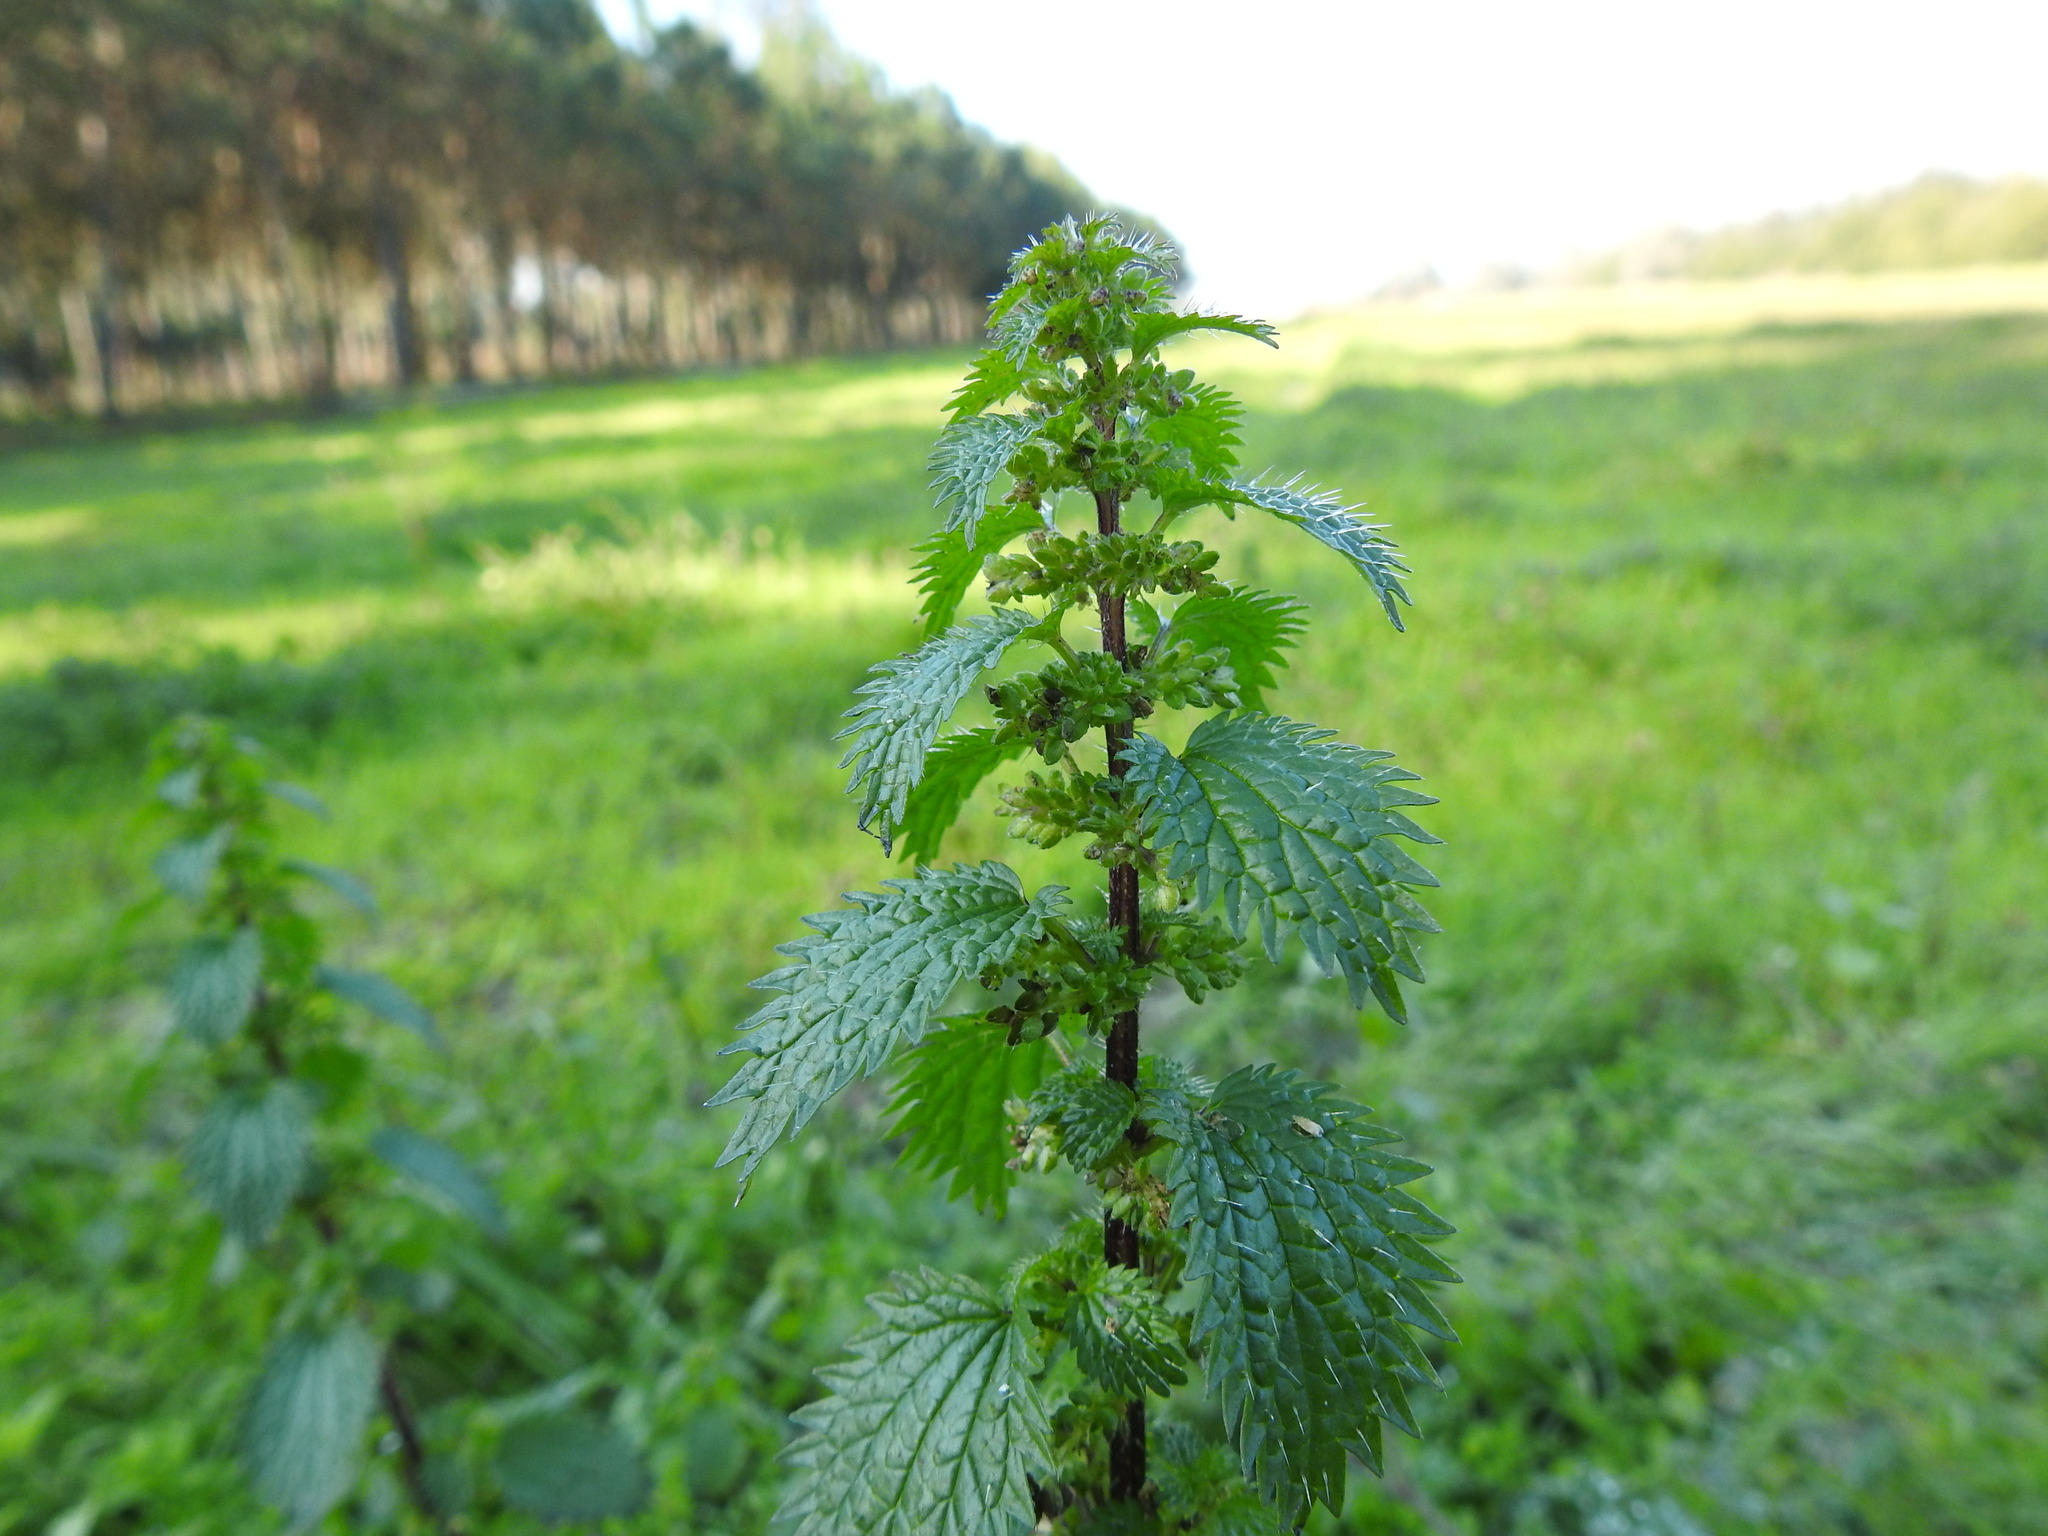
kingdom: Plantae
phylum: Tracheophyta
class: Magnoliopsida
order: Rosales
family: Urticaceae
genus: Urtica
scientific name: Urtica urens
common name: Dwarf nettle
